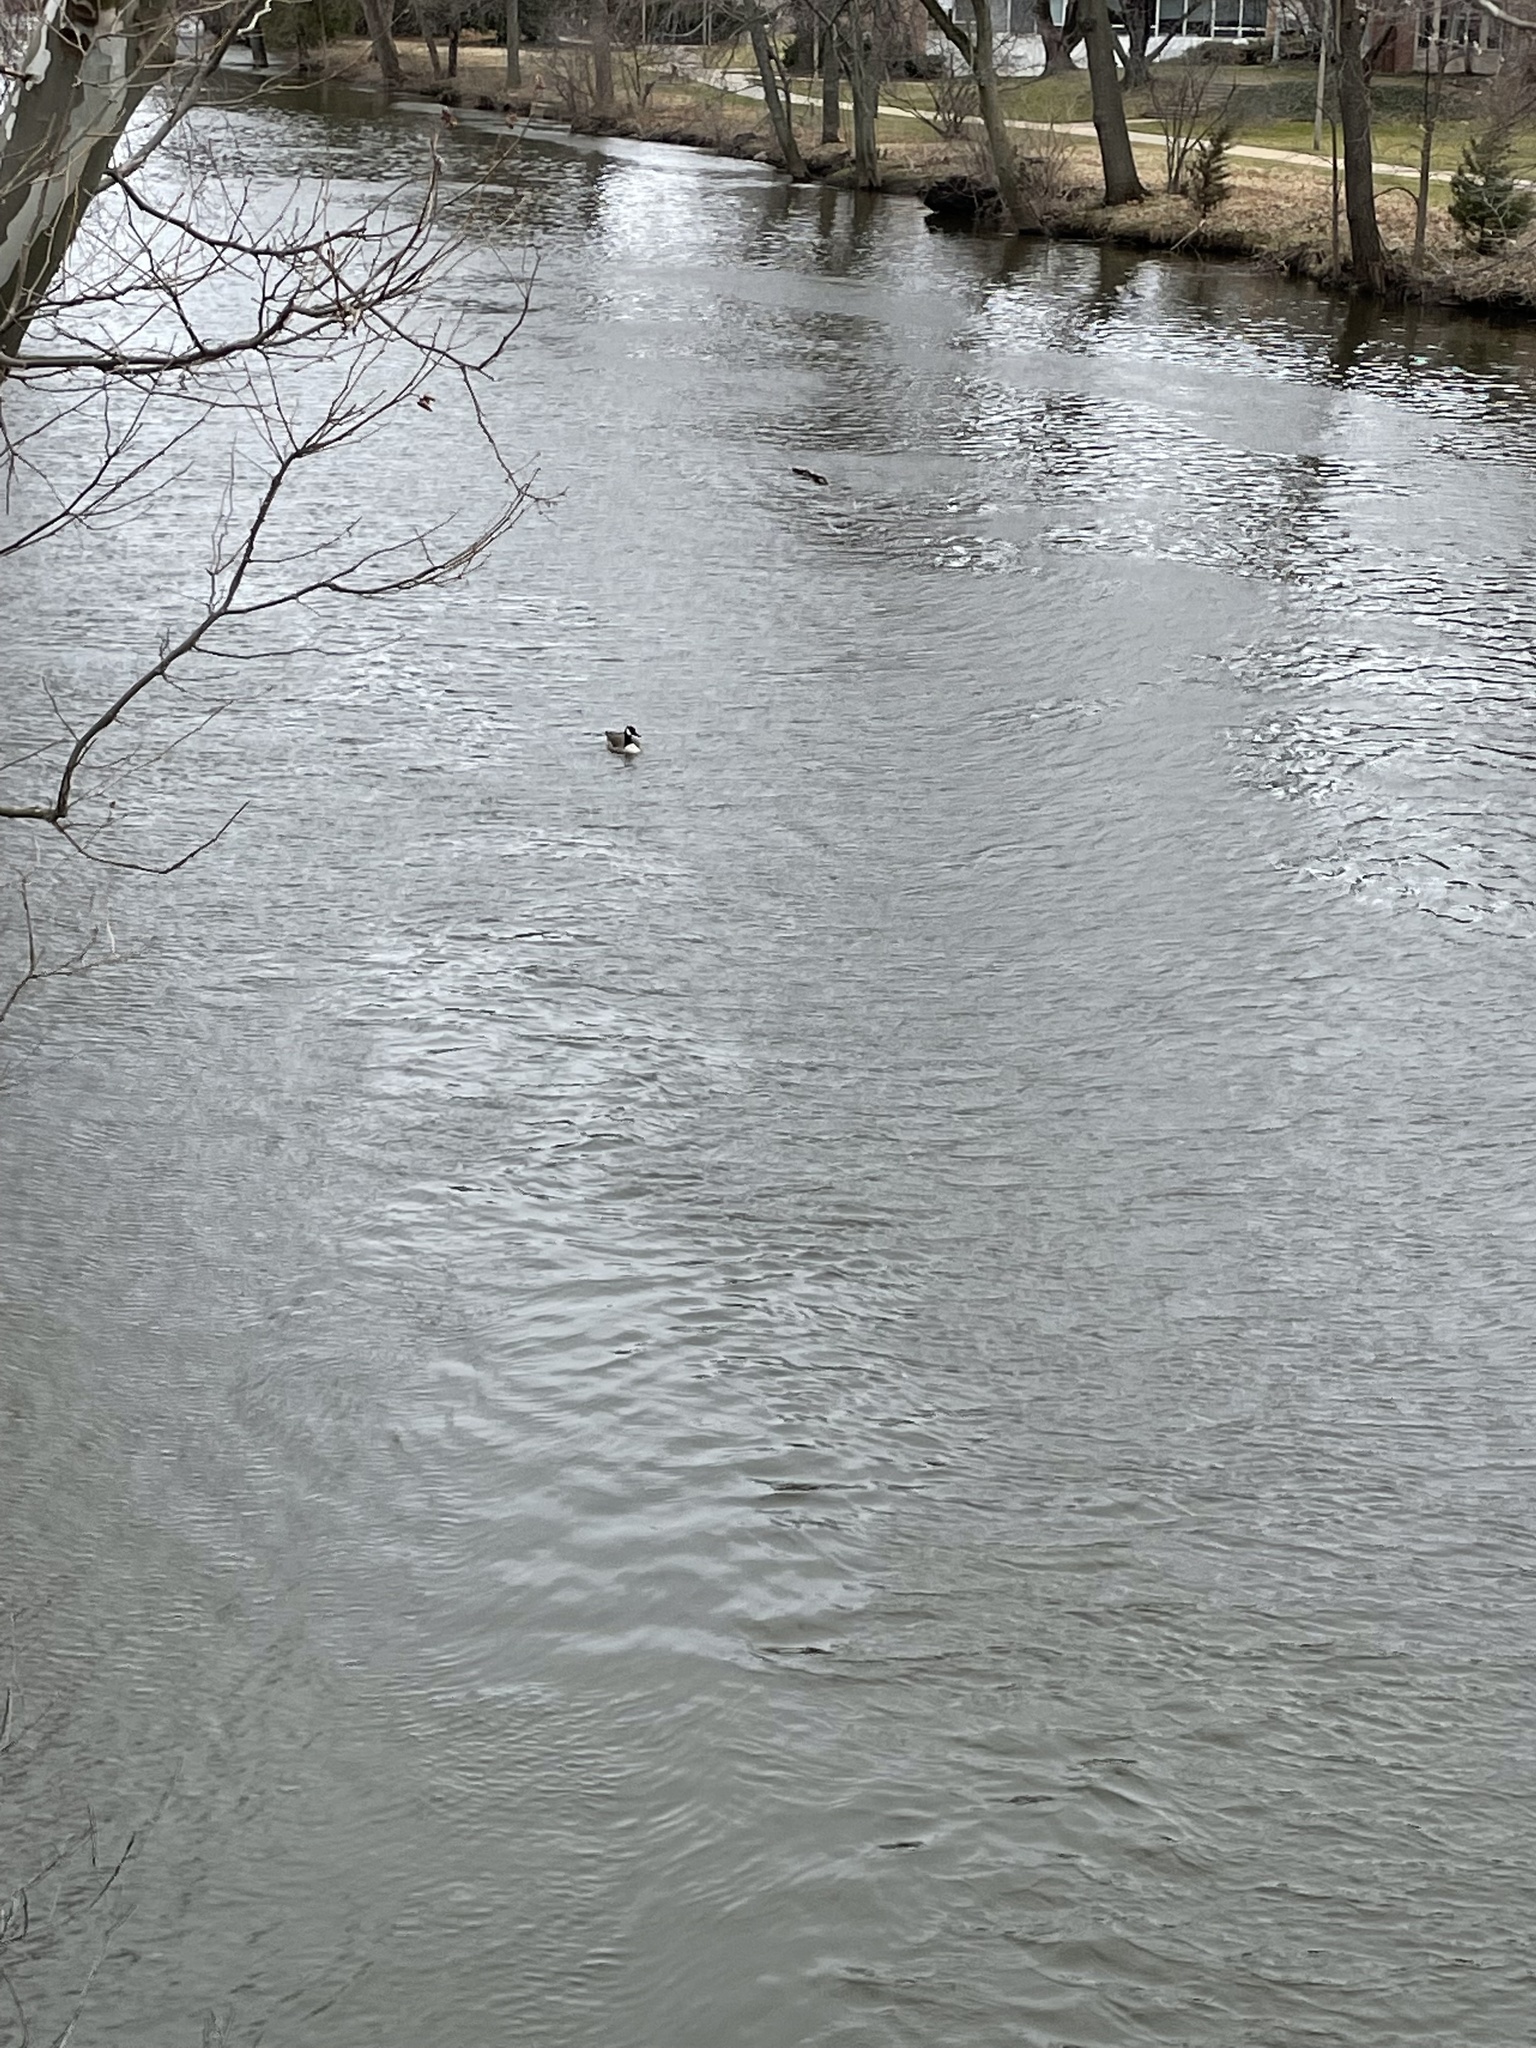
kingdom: Animalia
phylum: Chordata
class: Aves
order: Anseriformes
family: Anatidae
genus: Branta
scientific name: Branta canadensis
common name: Canada goose
